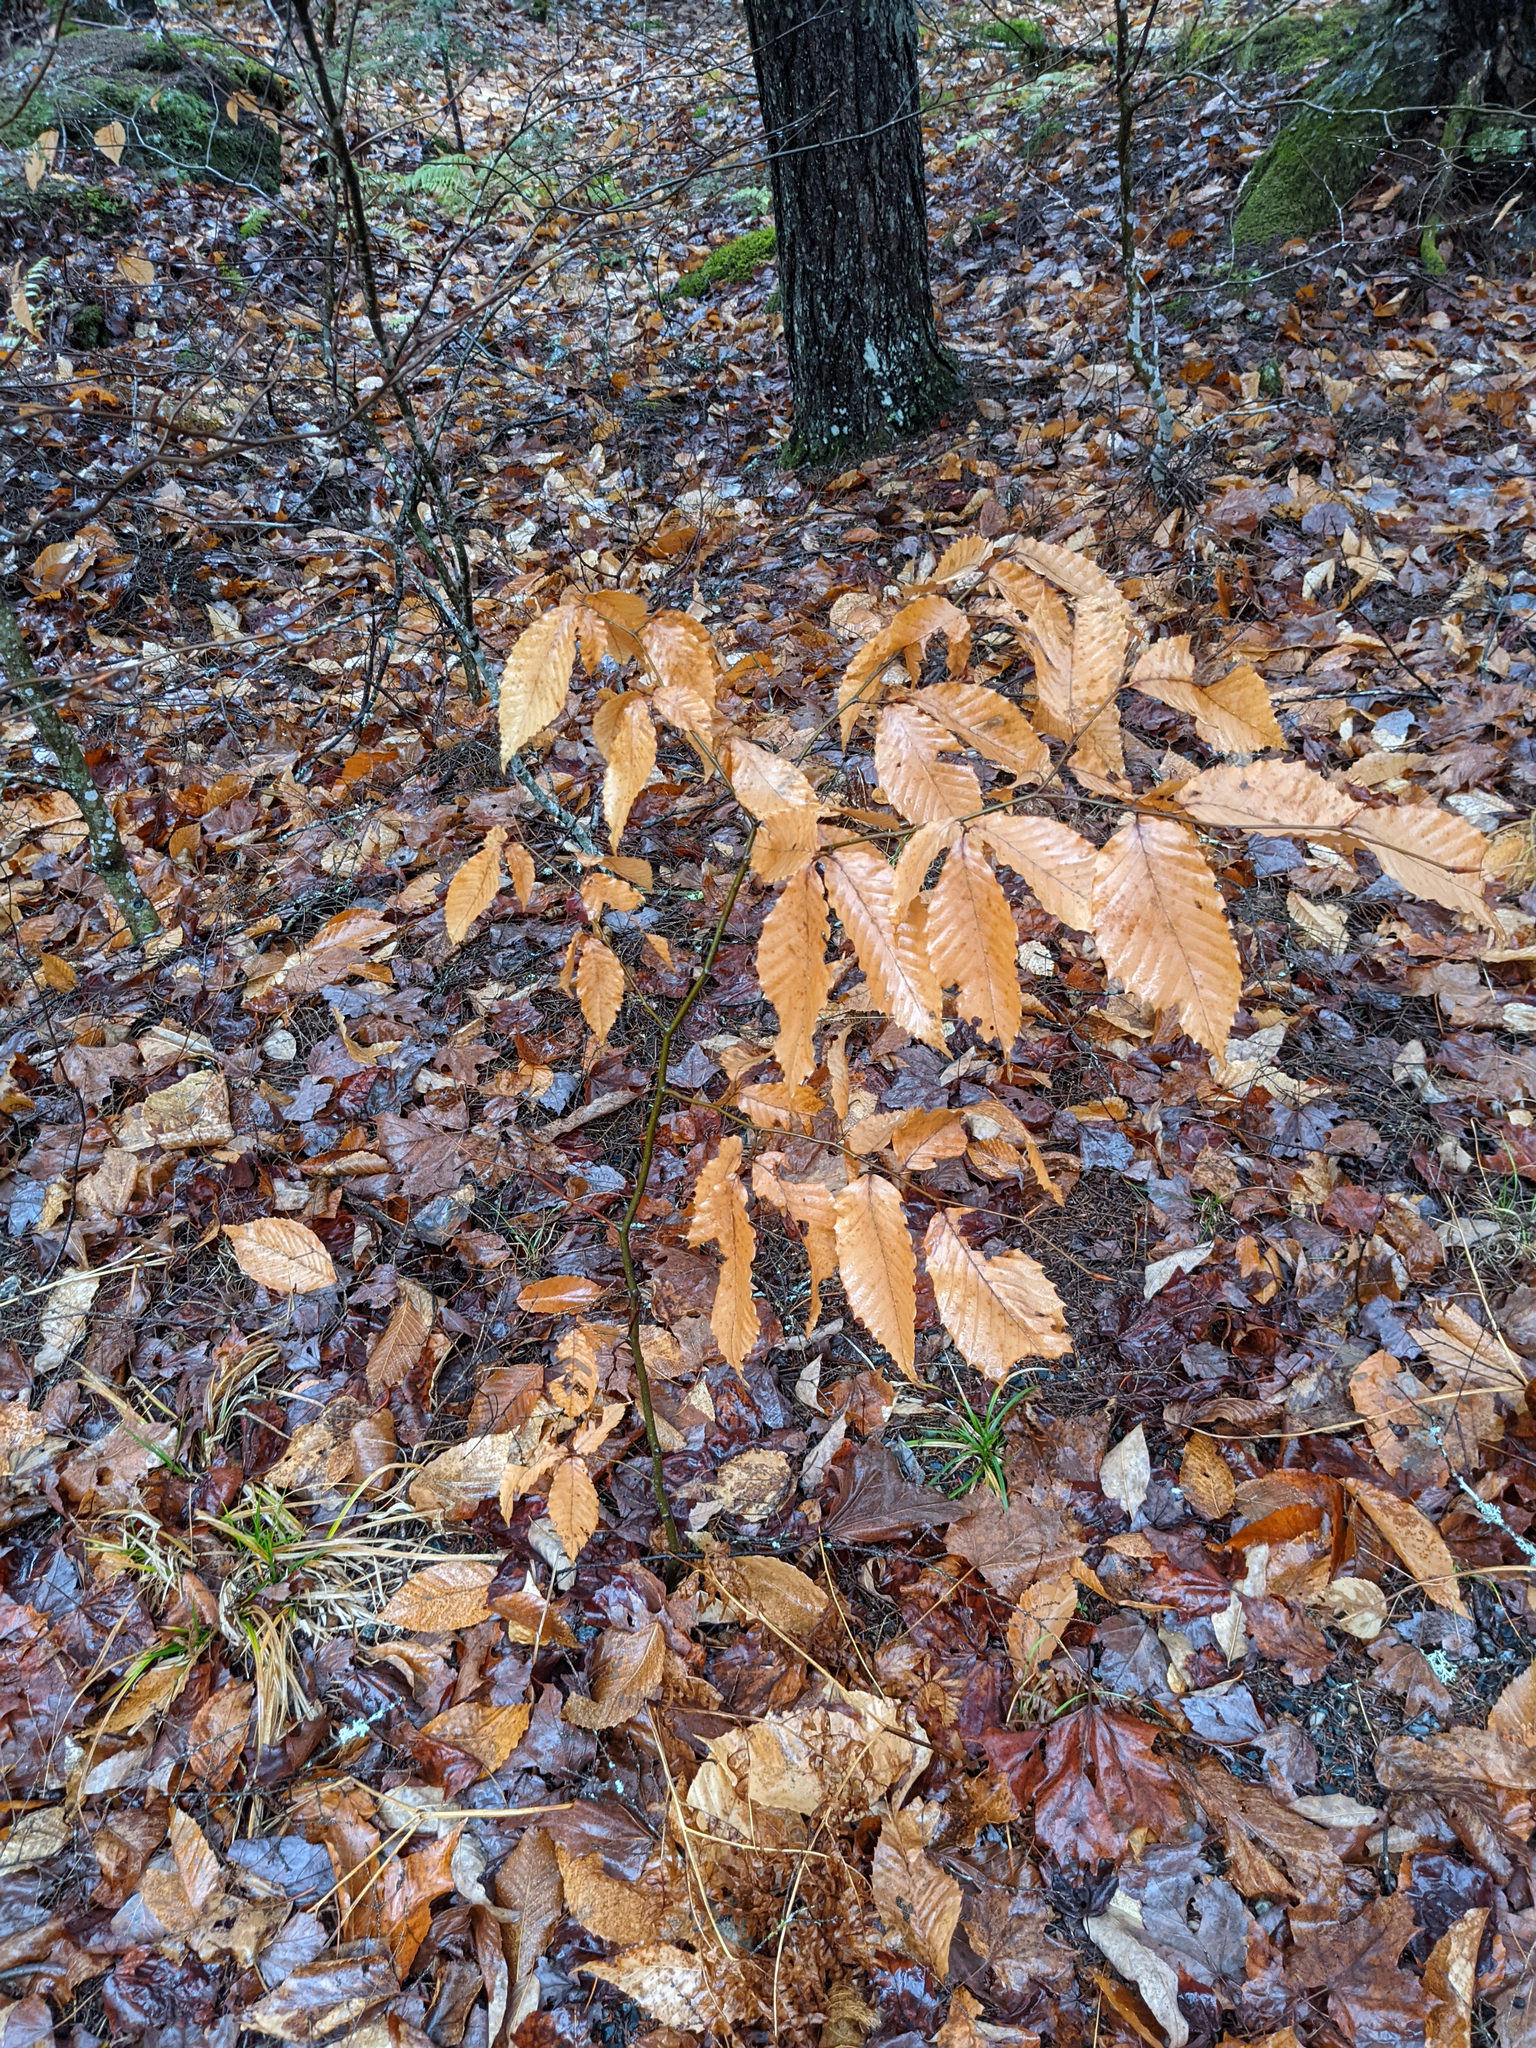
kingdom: Plantae
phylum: Tracheophyta
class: Magnoliopsida
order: Fagales
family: Fagaceae
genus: Fagus
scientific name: Fagus grandifolia
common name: American beech
